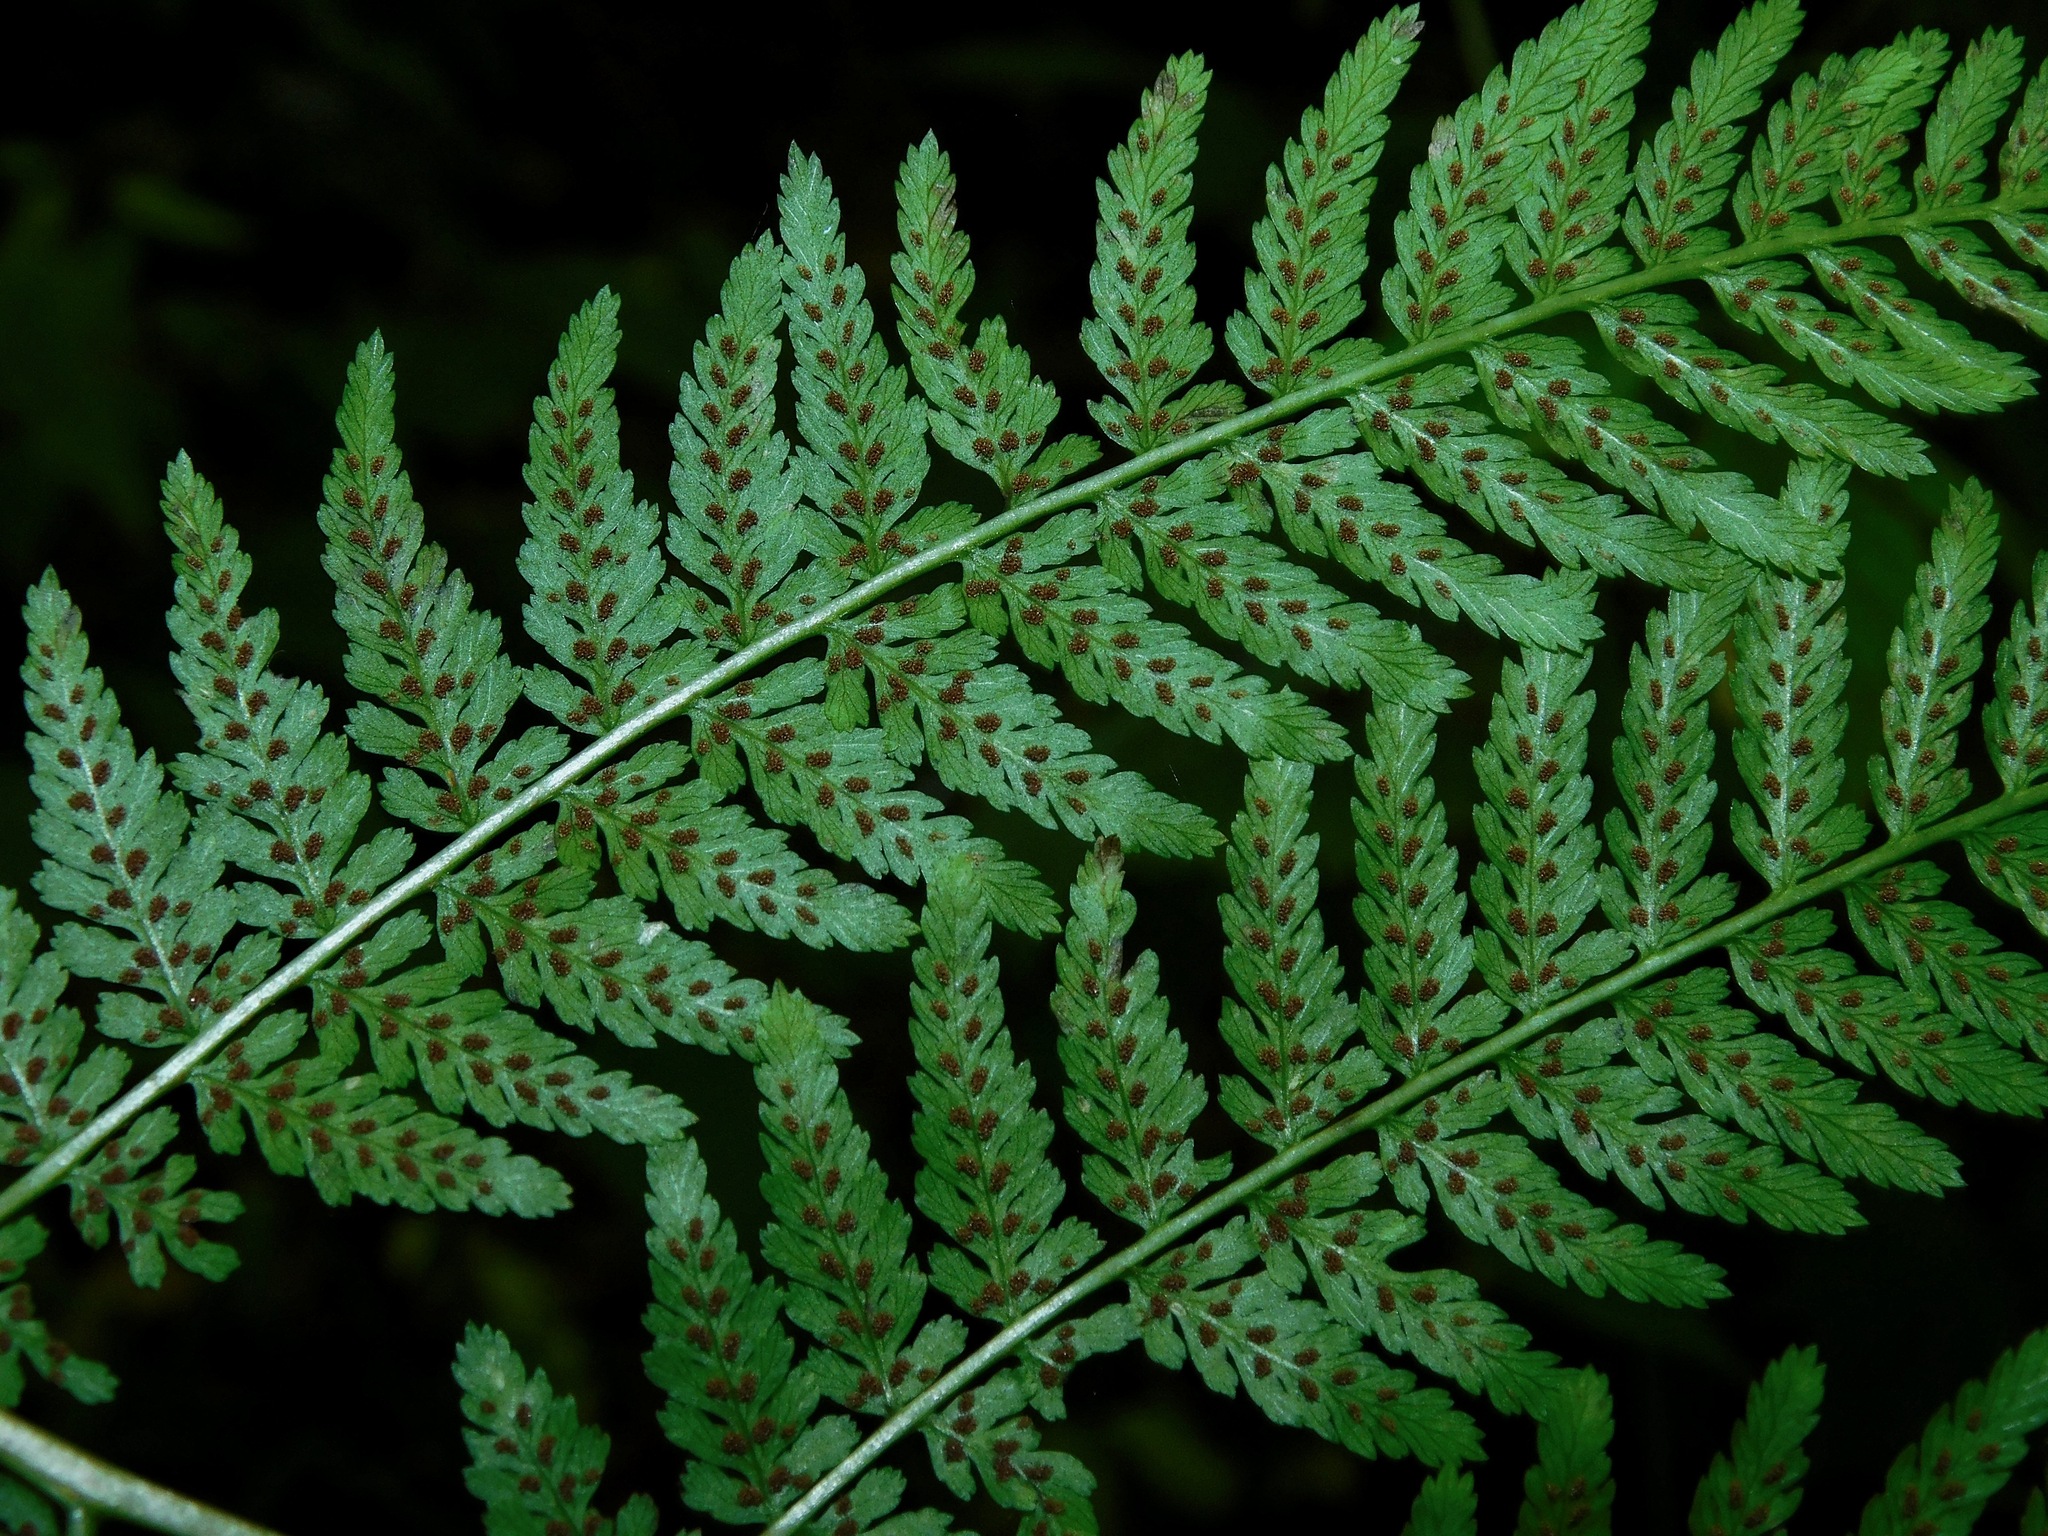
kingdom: Plantae
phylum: Tracheophyta
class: Polypodiopsida
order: Polypodiales
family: Athyriaceae
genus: Athyrium
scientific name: Athyrium asplenioides
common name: Southern lady fern
